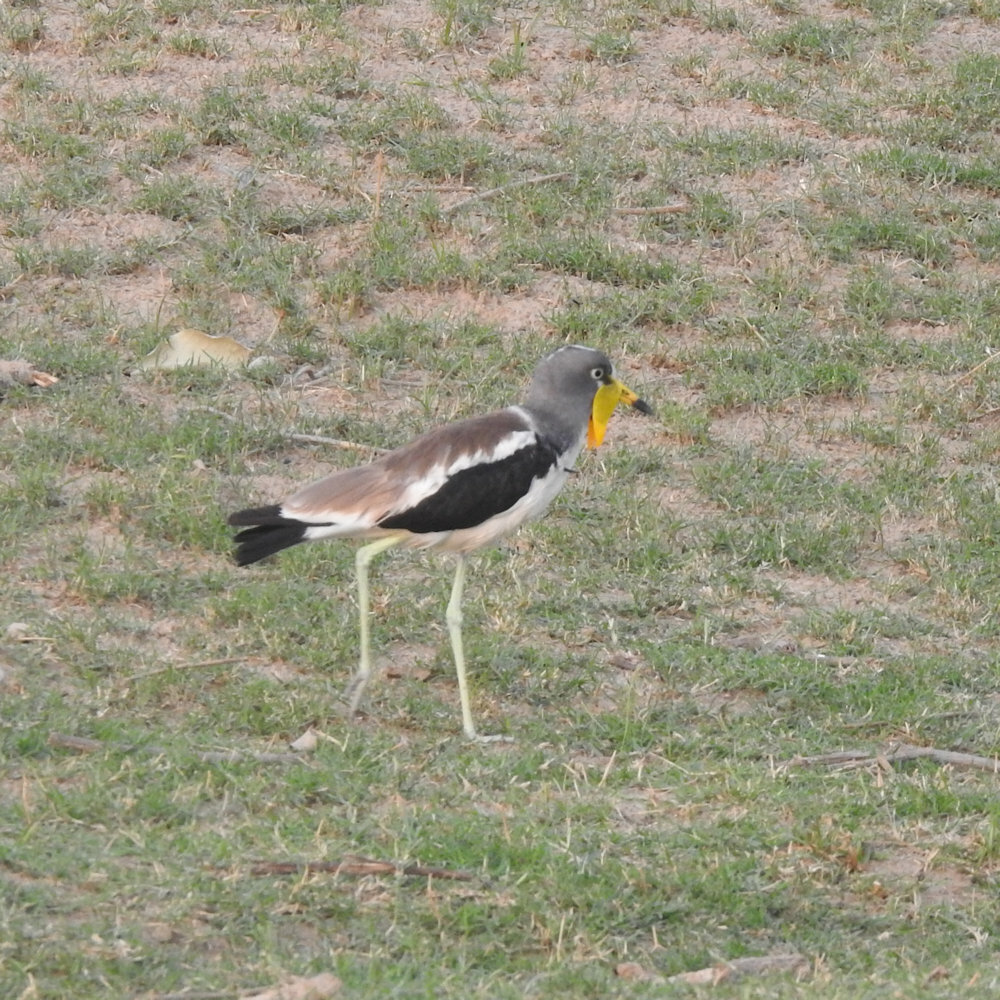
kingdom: Animalia
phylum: Chordata
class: Aves
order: Charadriiformes
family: Charadriidae
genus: Vanellus
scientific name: Vanellus albiceps
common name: White-crowned lapwing
